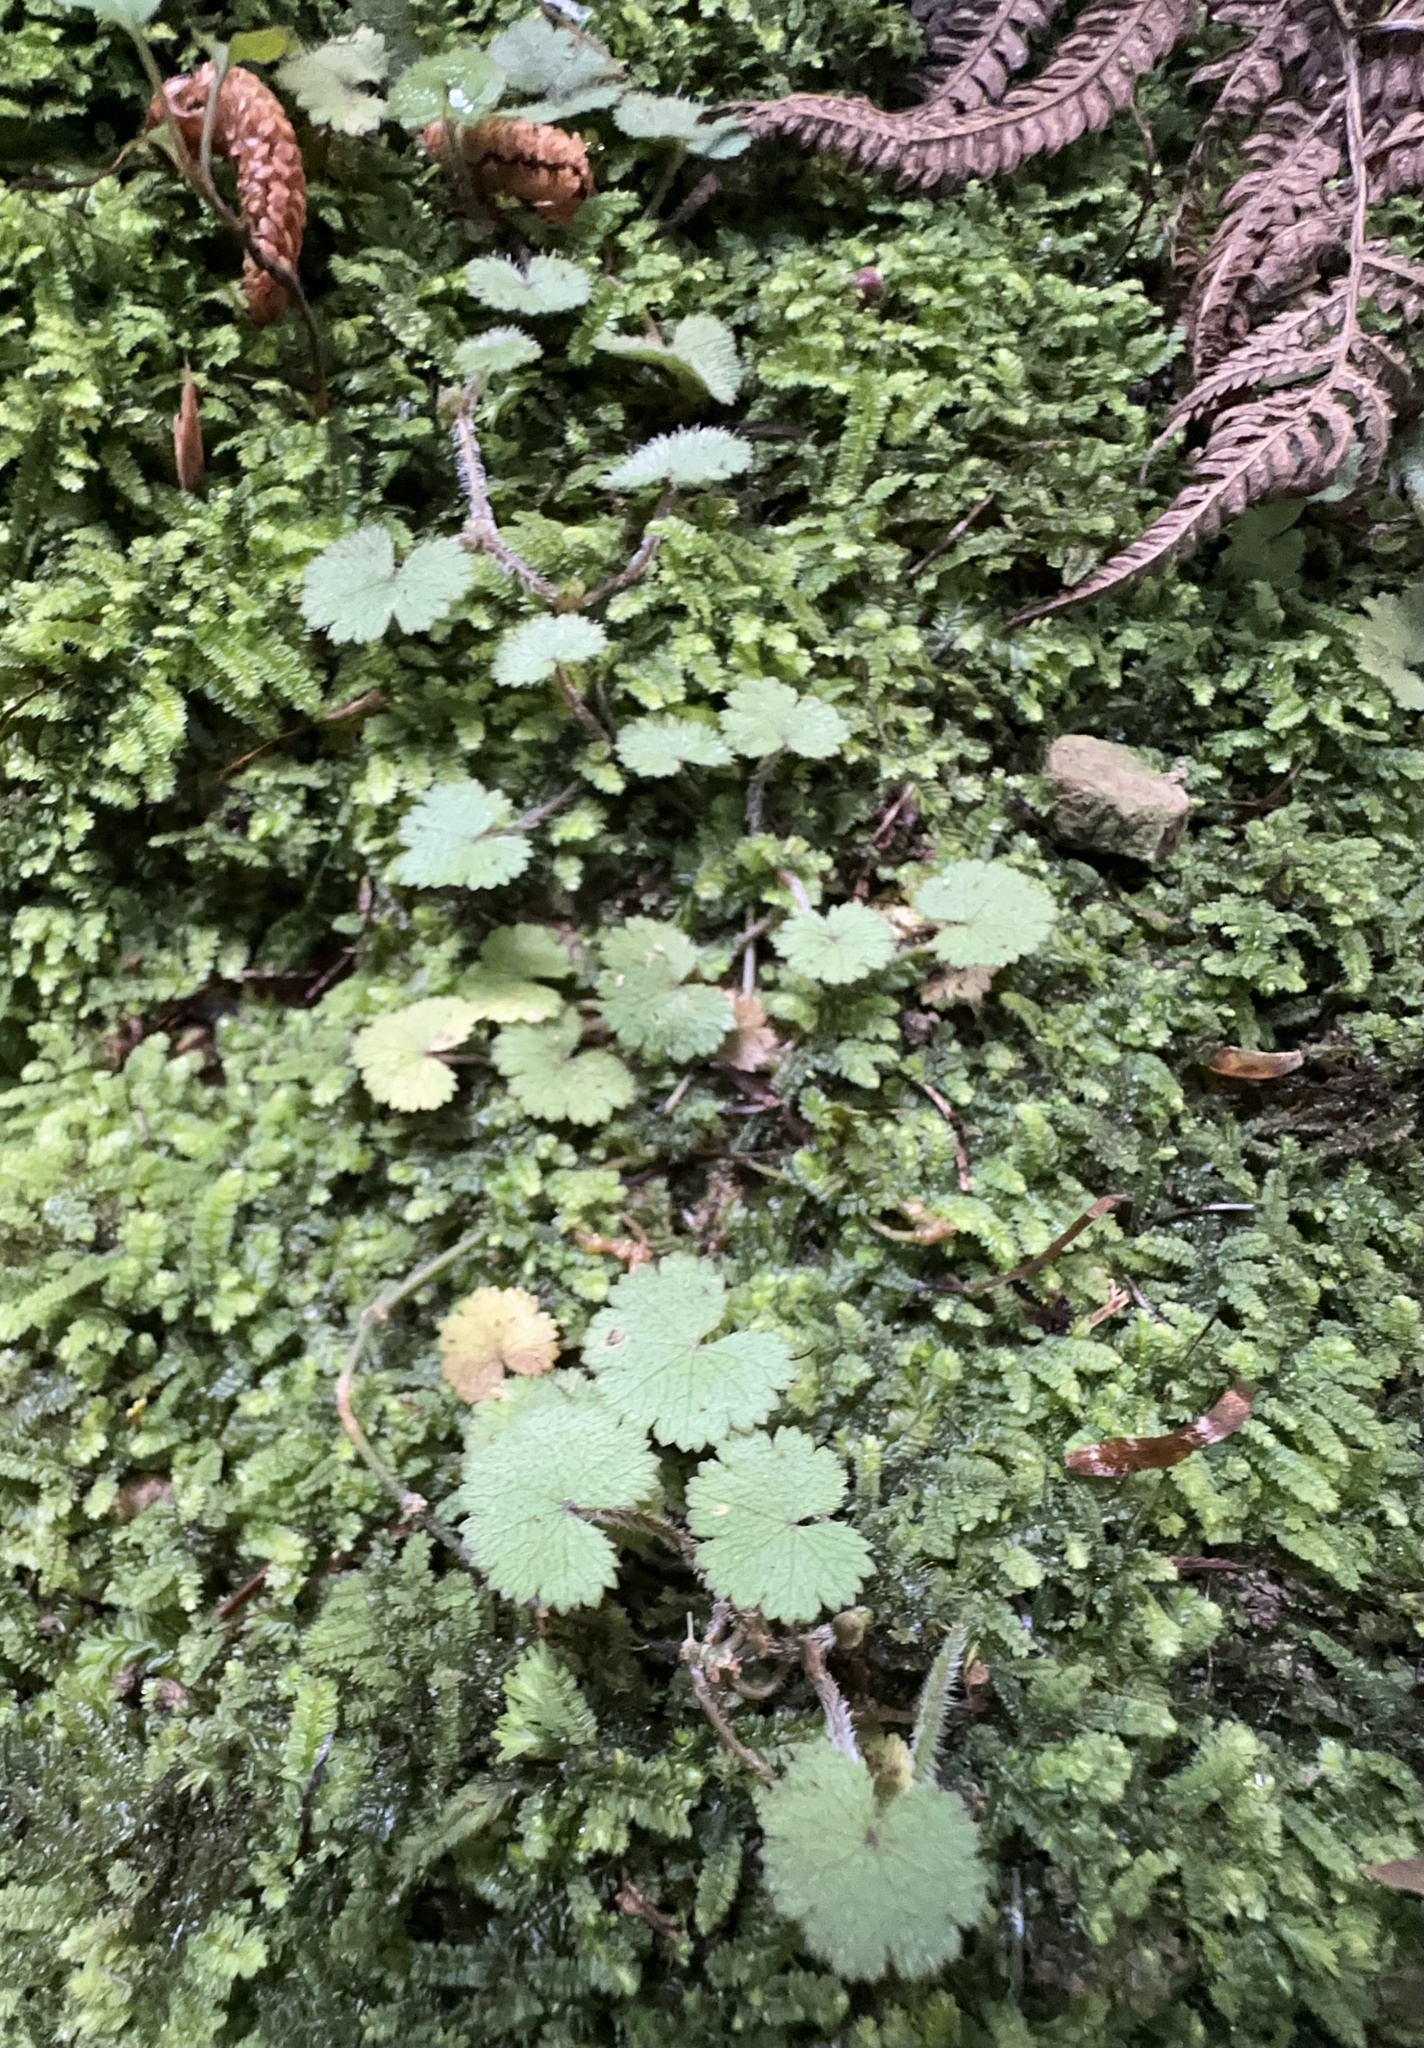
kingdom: Plantae
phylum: Tracheophyta
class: Magnoliopsida
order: Apiales
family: Araliaceae
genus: Hydrocotyle
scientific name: Hydrocotyle moschata
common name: Hairy pennywort
